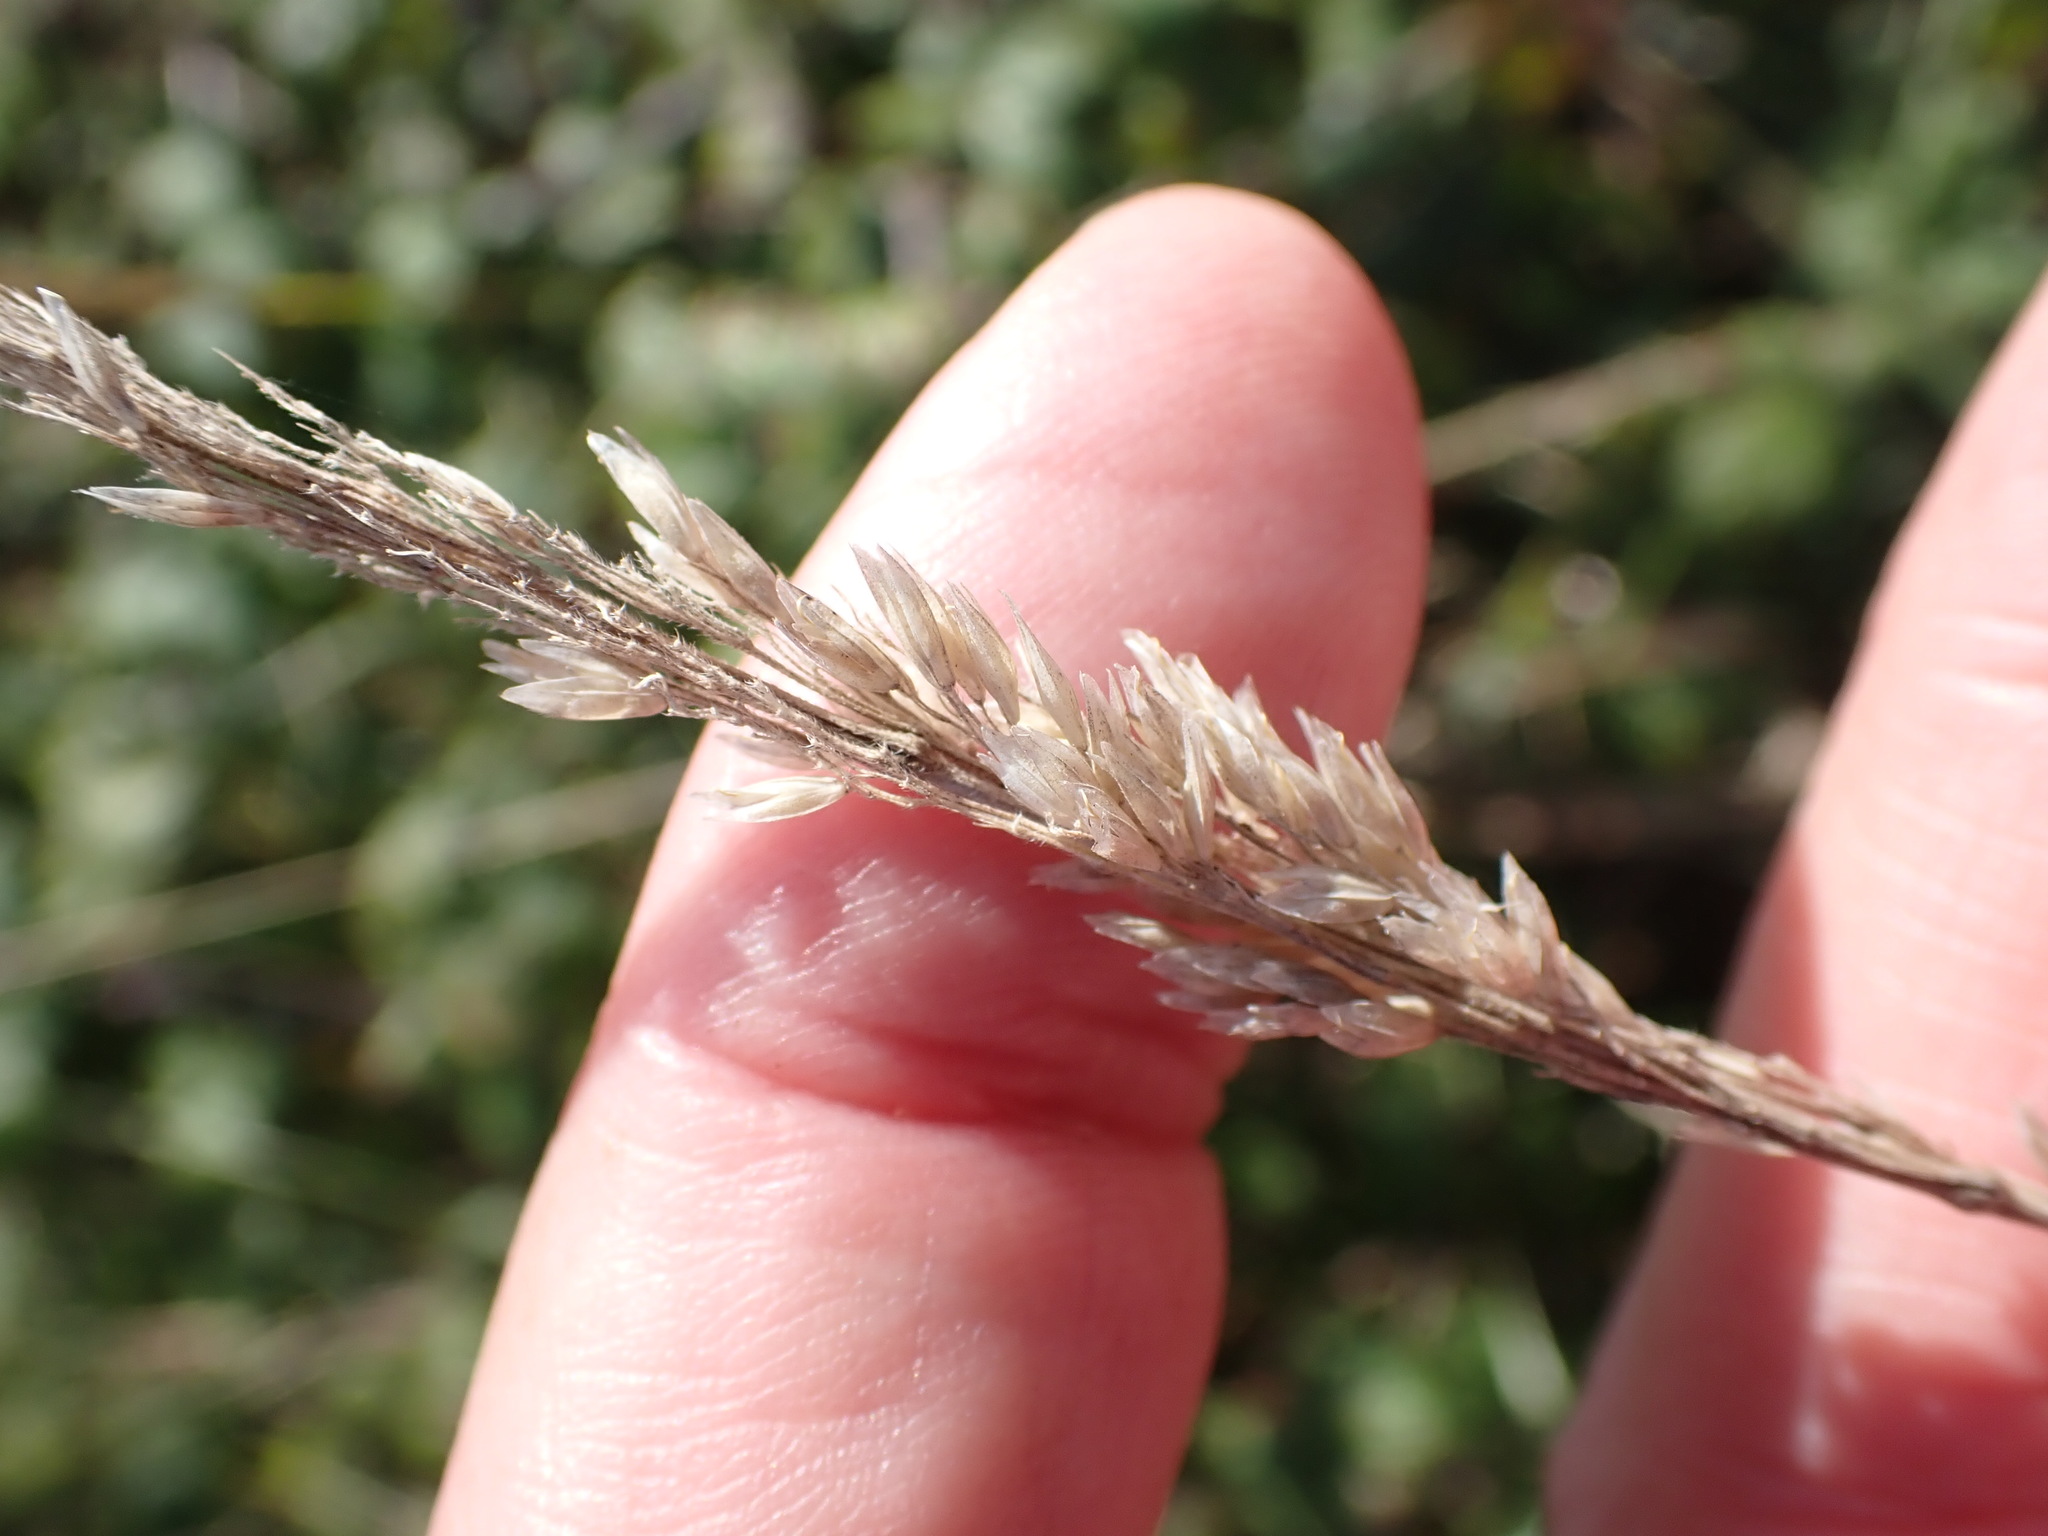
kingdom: Plantae
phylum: Tracheophyta
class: Liliopsida
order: Poales
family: Poaceae
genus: Holcus
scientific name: Holcus lanatus
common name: Yorkshire-fog
